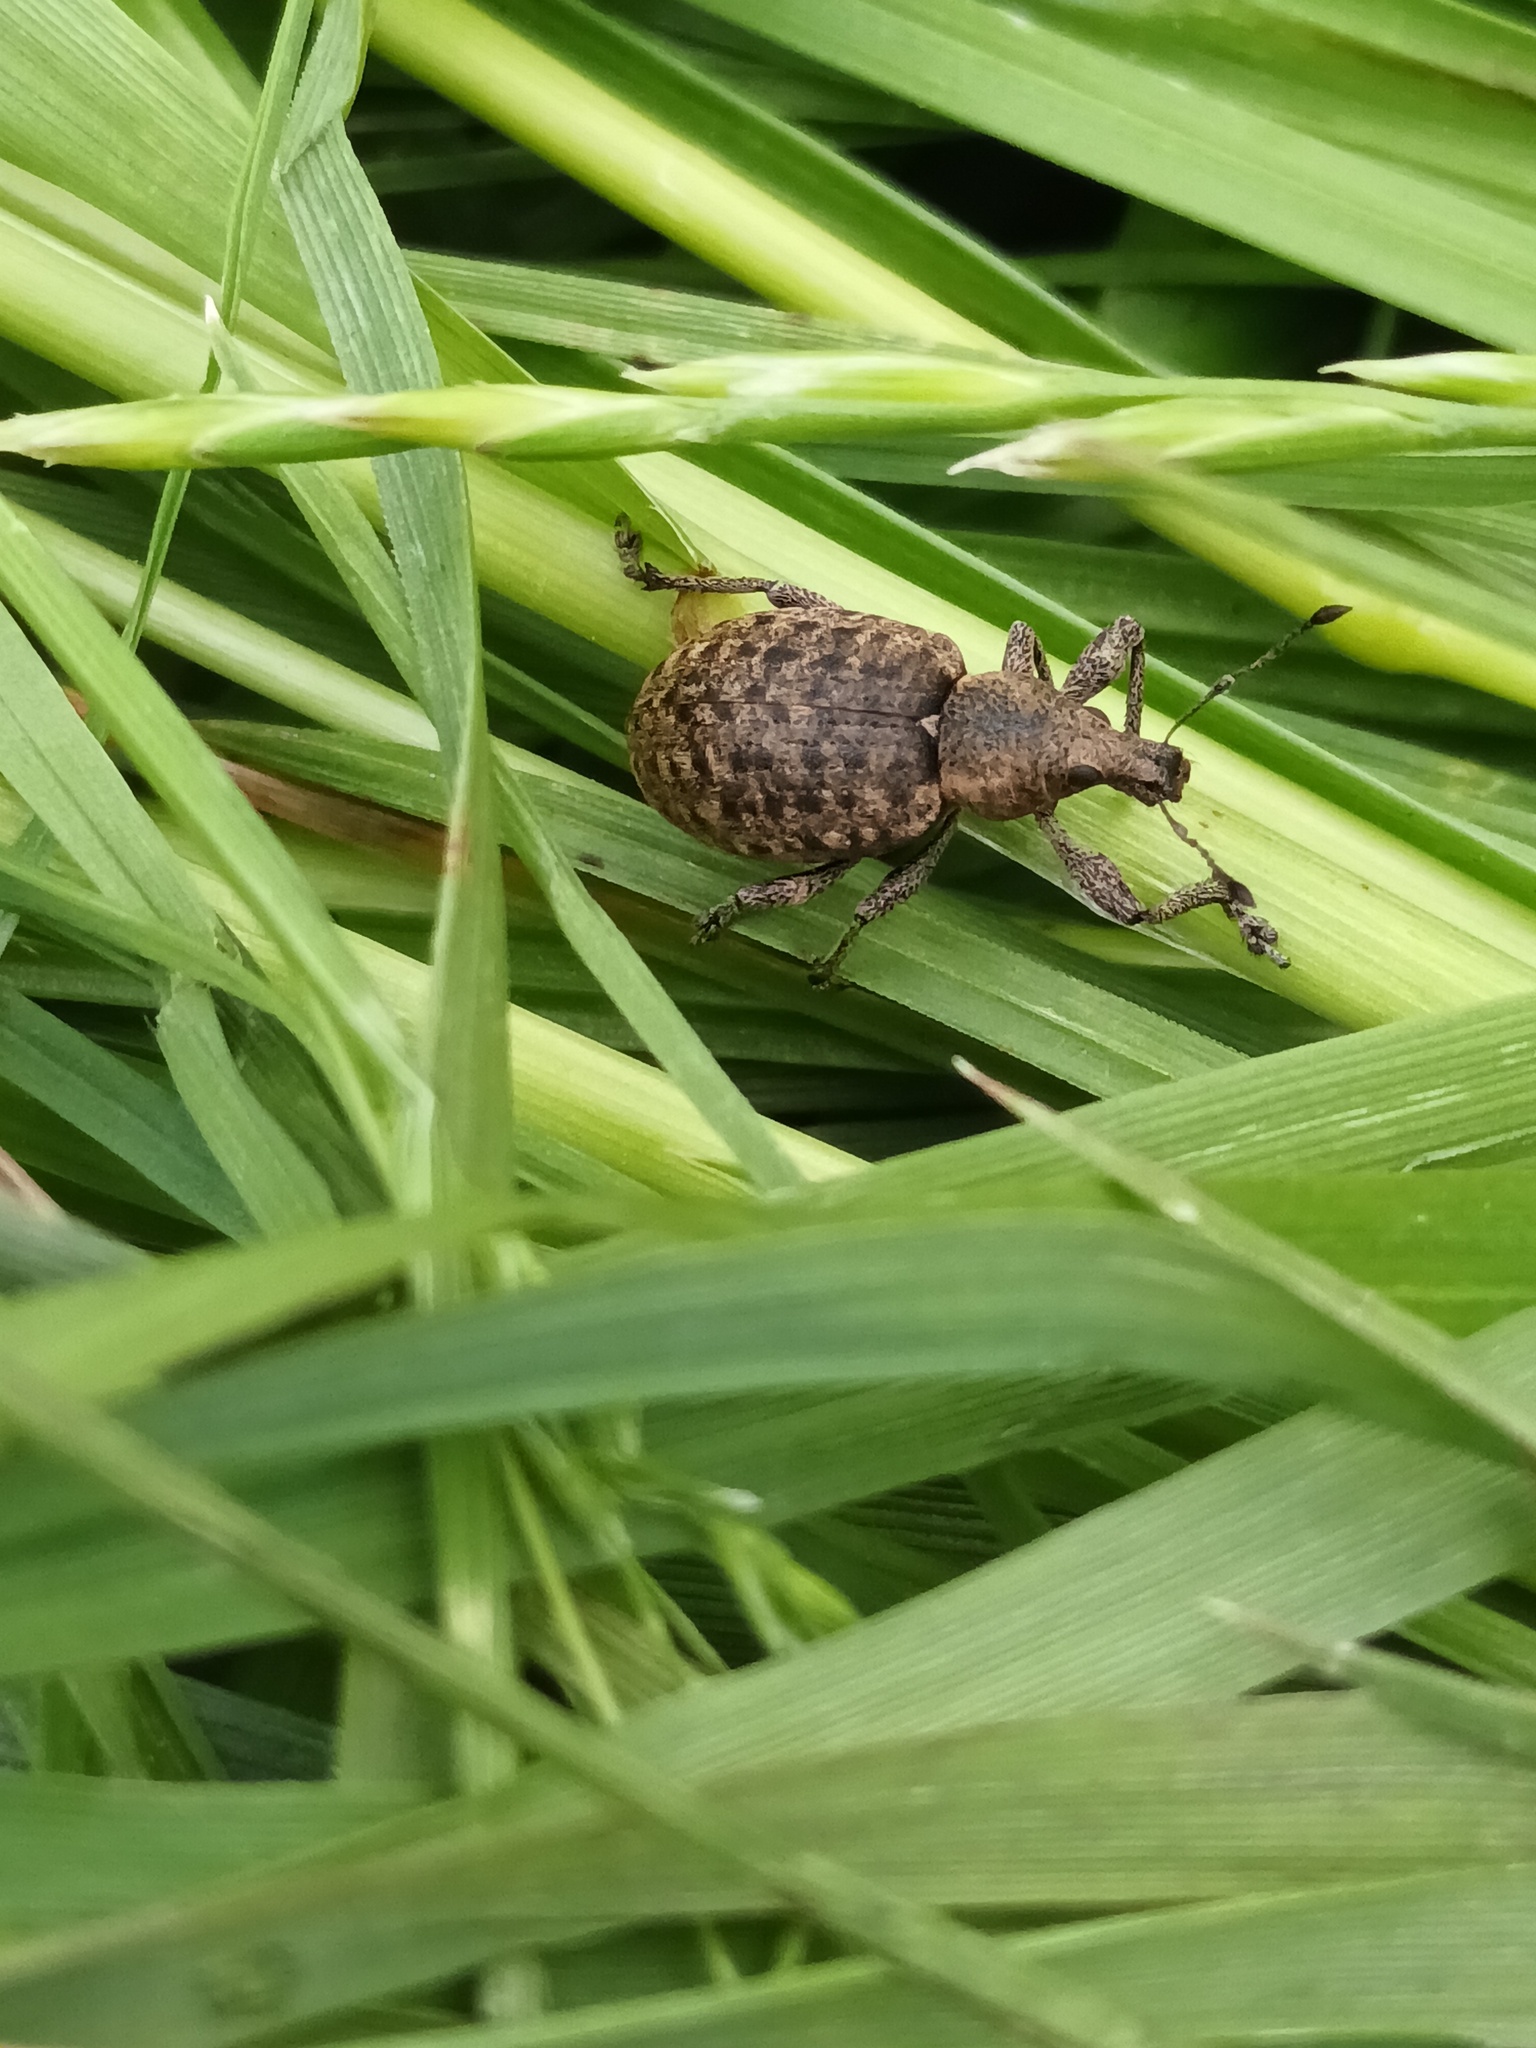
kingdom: Animalia
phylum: Arthropoda
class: Insecta
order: Coleoptera
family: Curculionidae
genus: Liophloeus
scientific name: Liophloeus tessulatus
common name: Weevil
